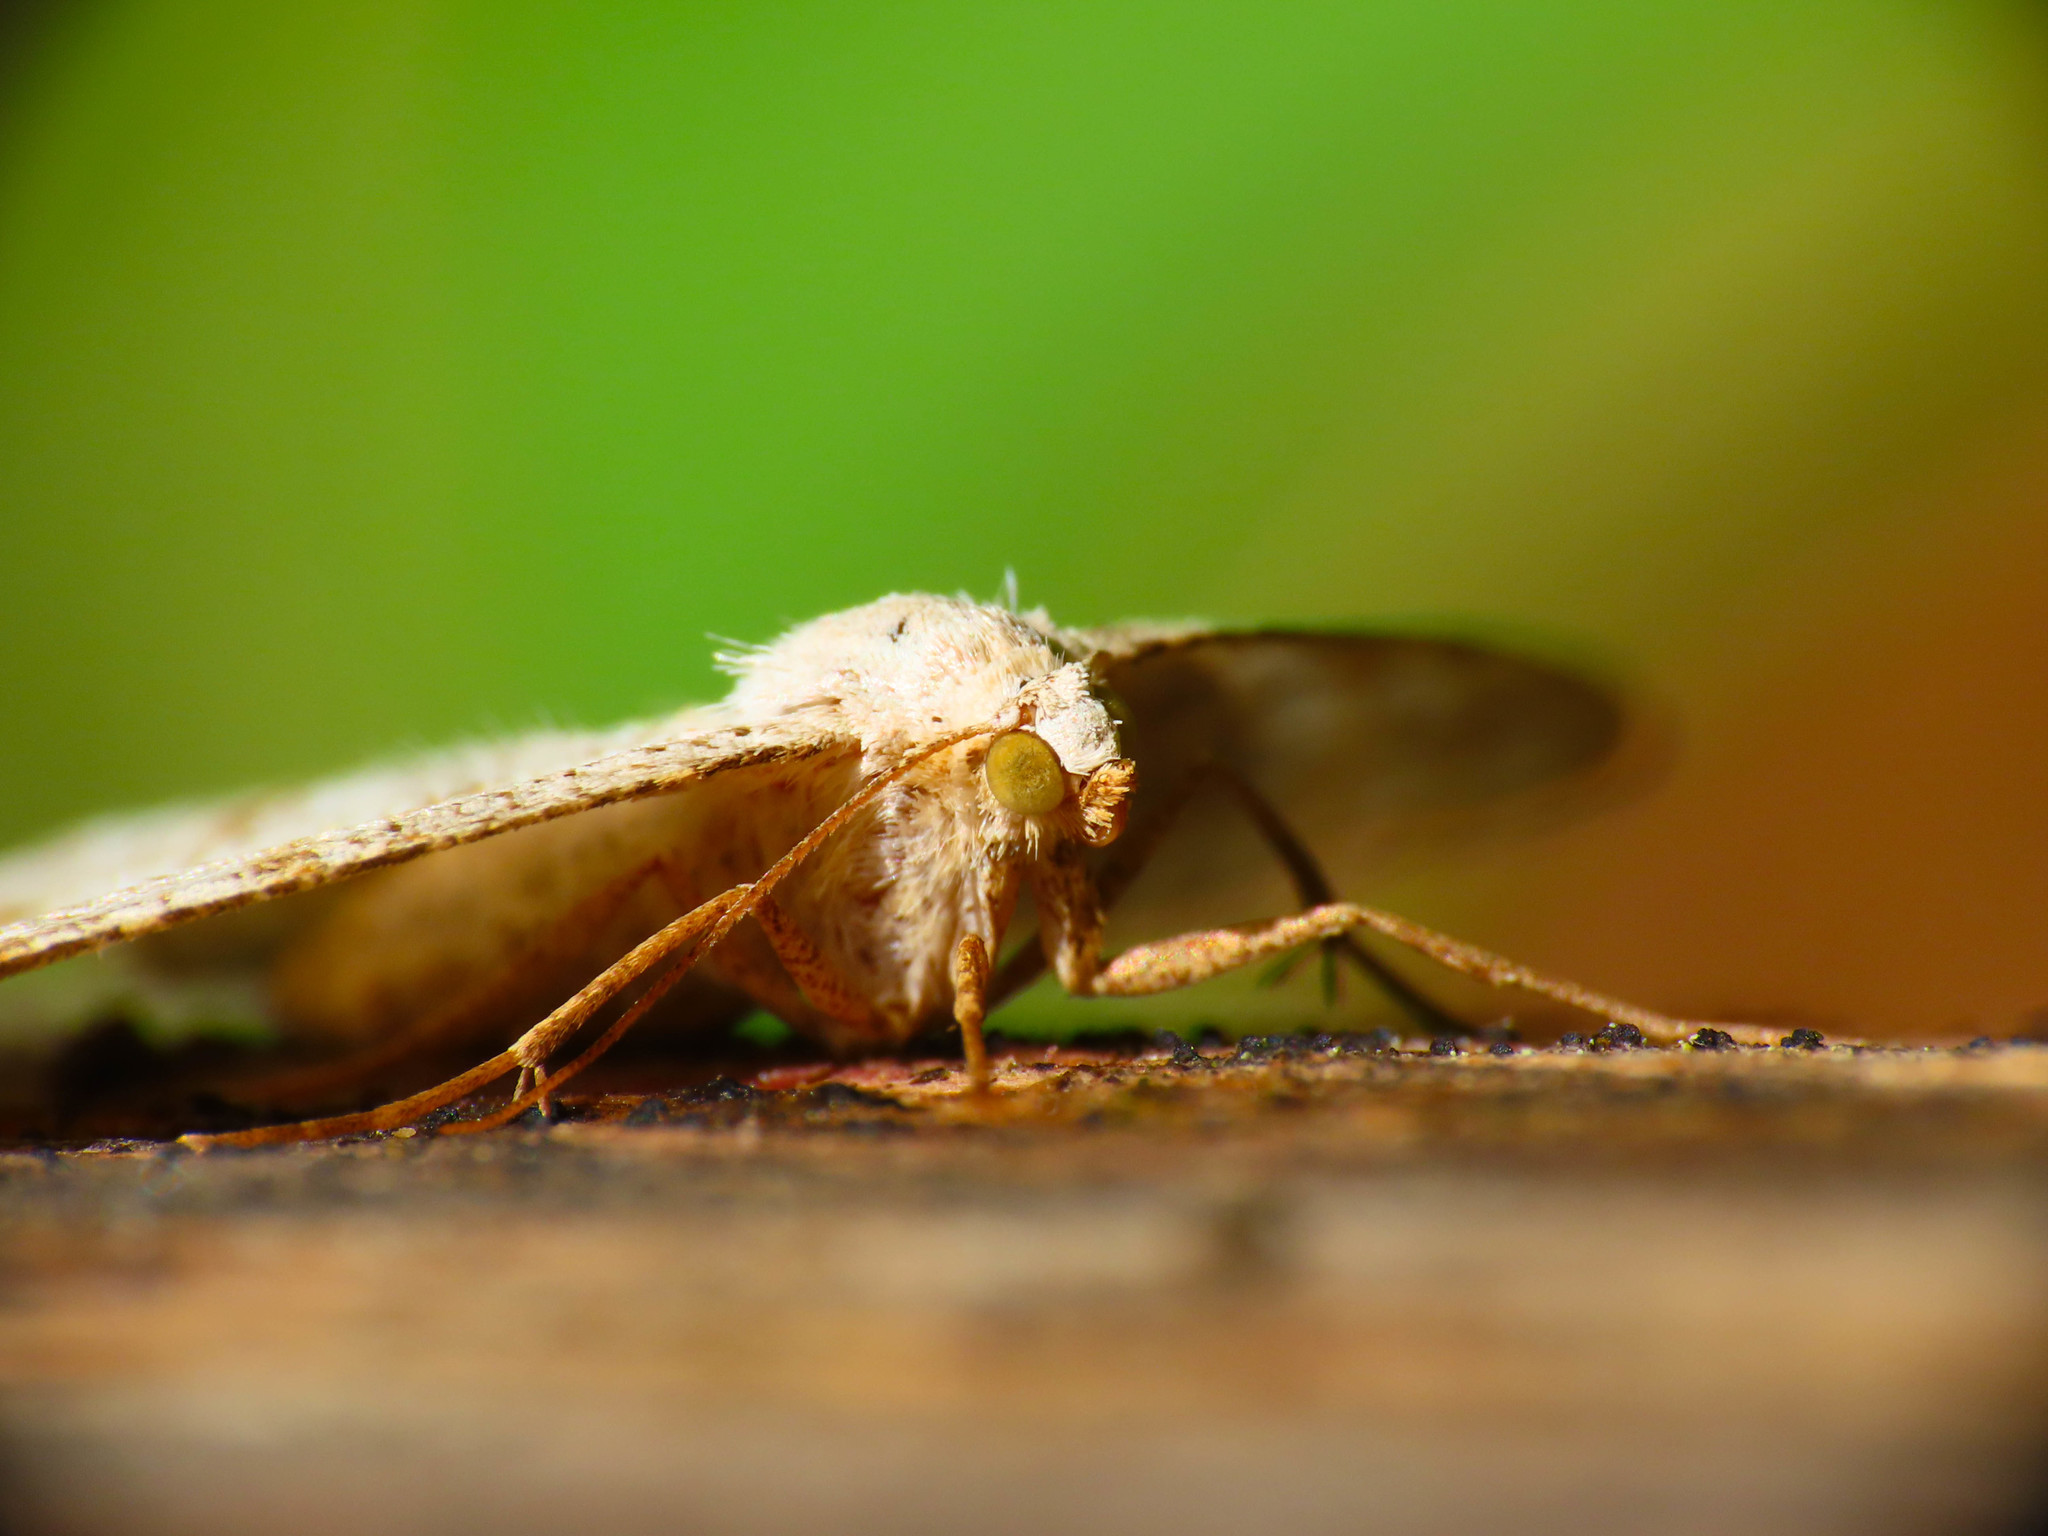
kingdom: Animalia
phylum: Arthropoda
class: Insecta
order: Lepidoptera
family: Geometridae
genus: Isturgia
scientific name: Isturgia sparsaria
